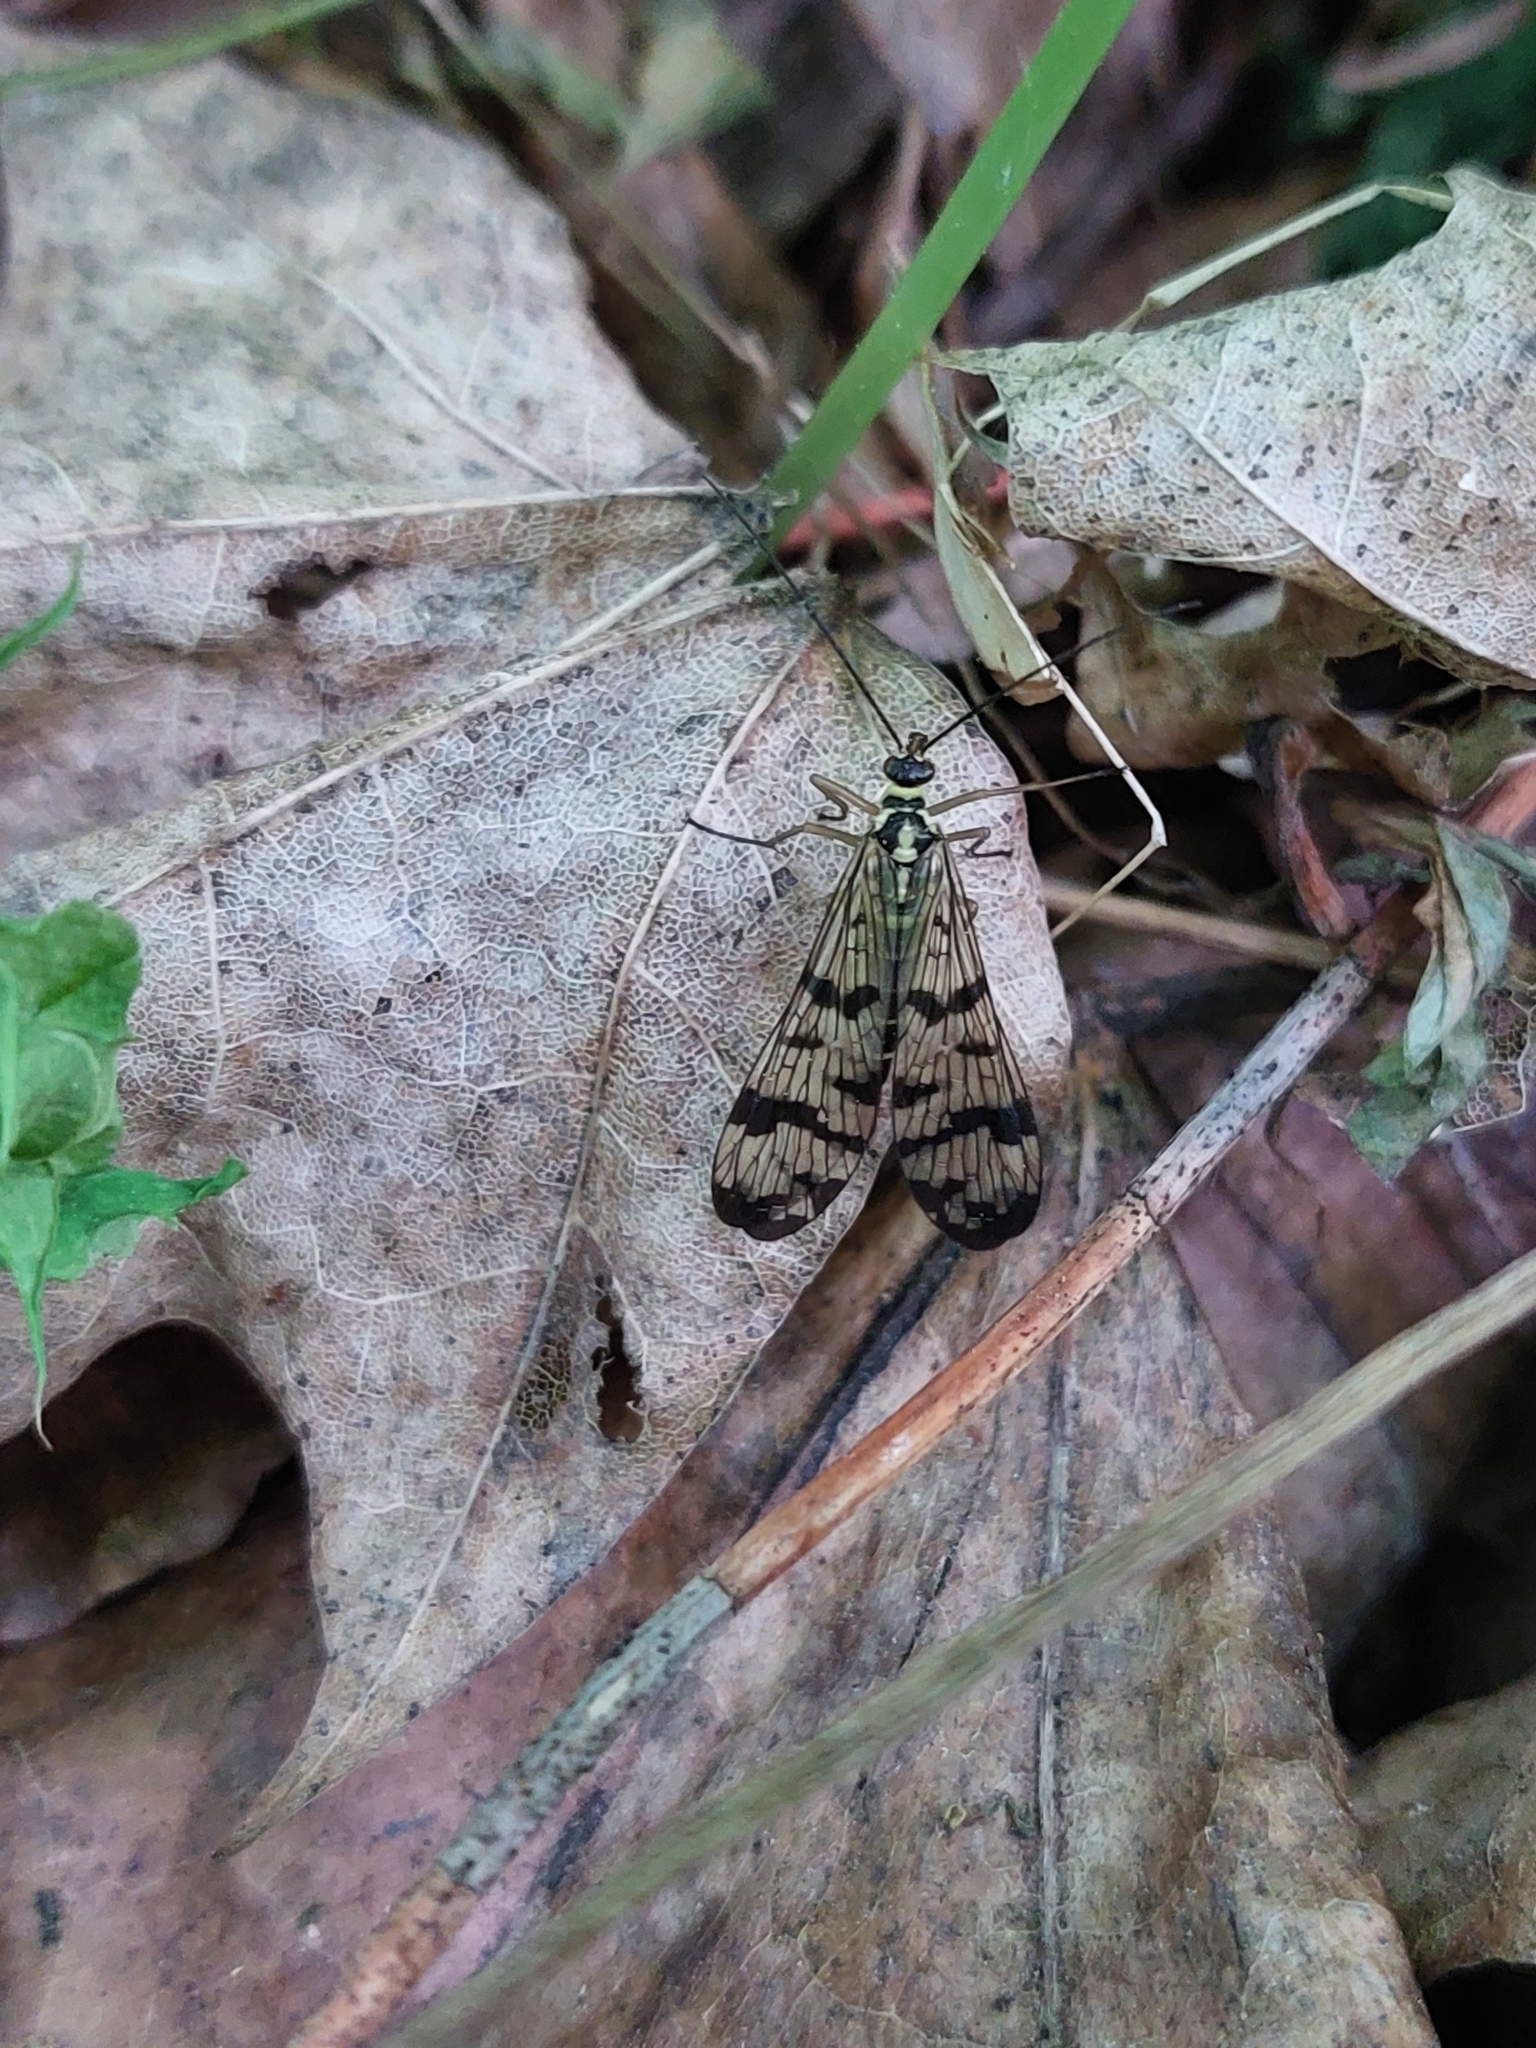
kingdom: Animalia
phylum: Arthropoda
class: Insecta
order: Mecoptera
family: Panorpidae
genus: Panorpa
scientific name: Panorpa communis
